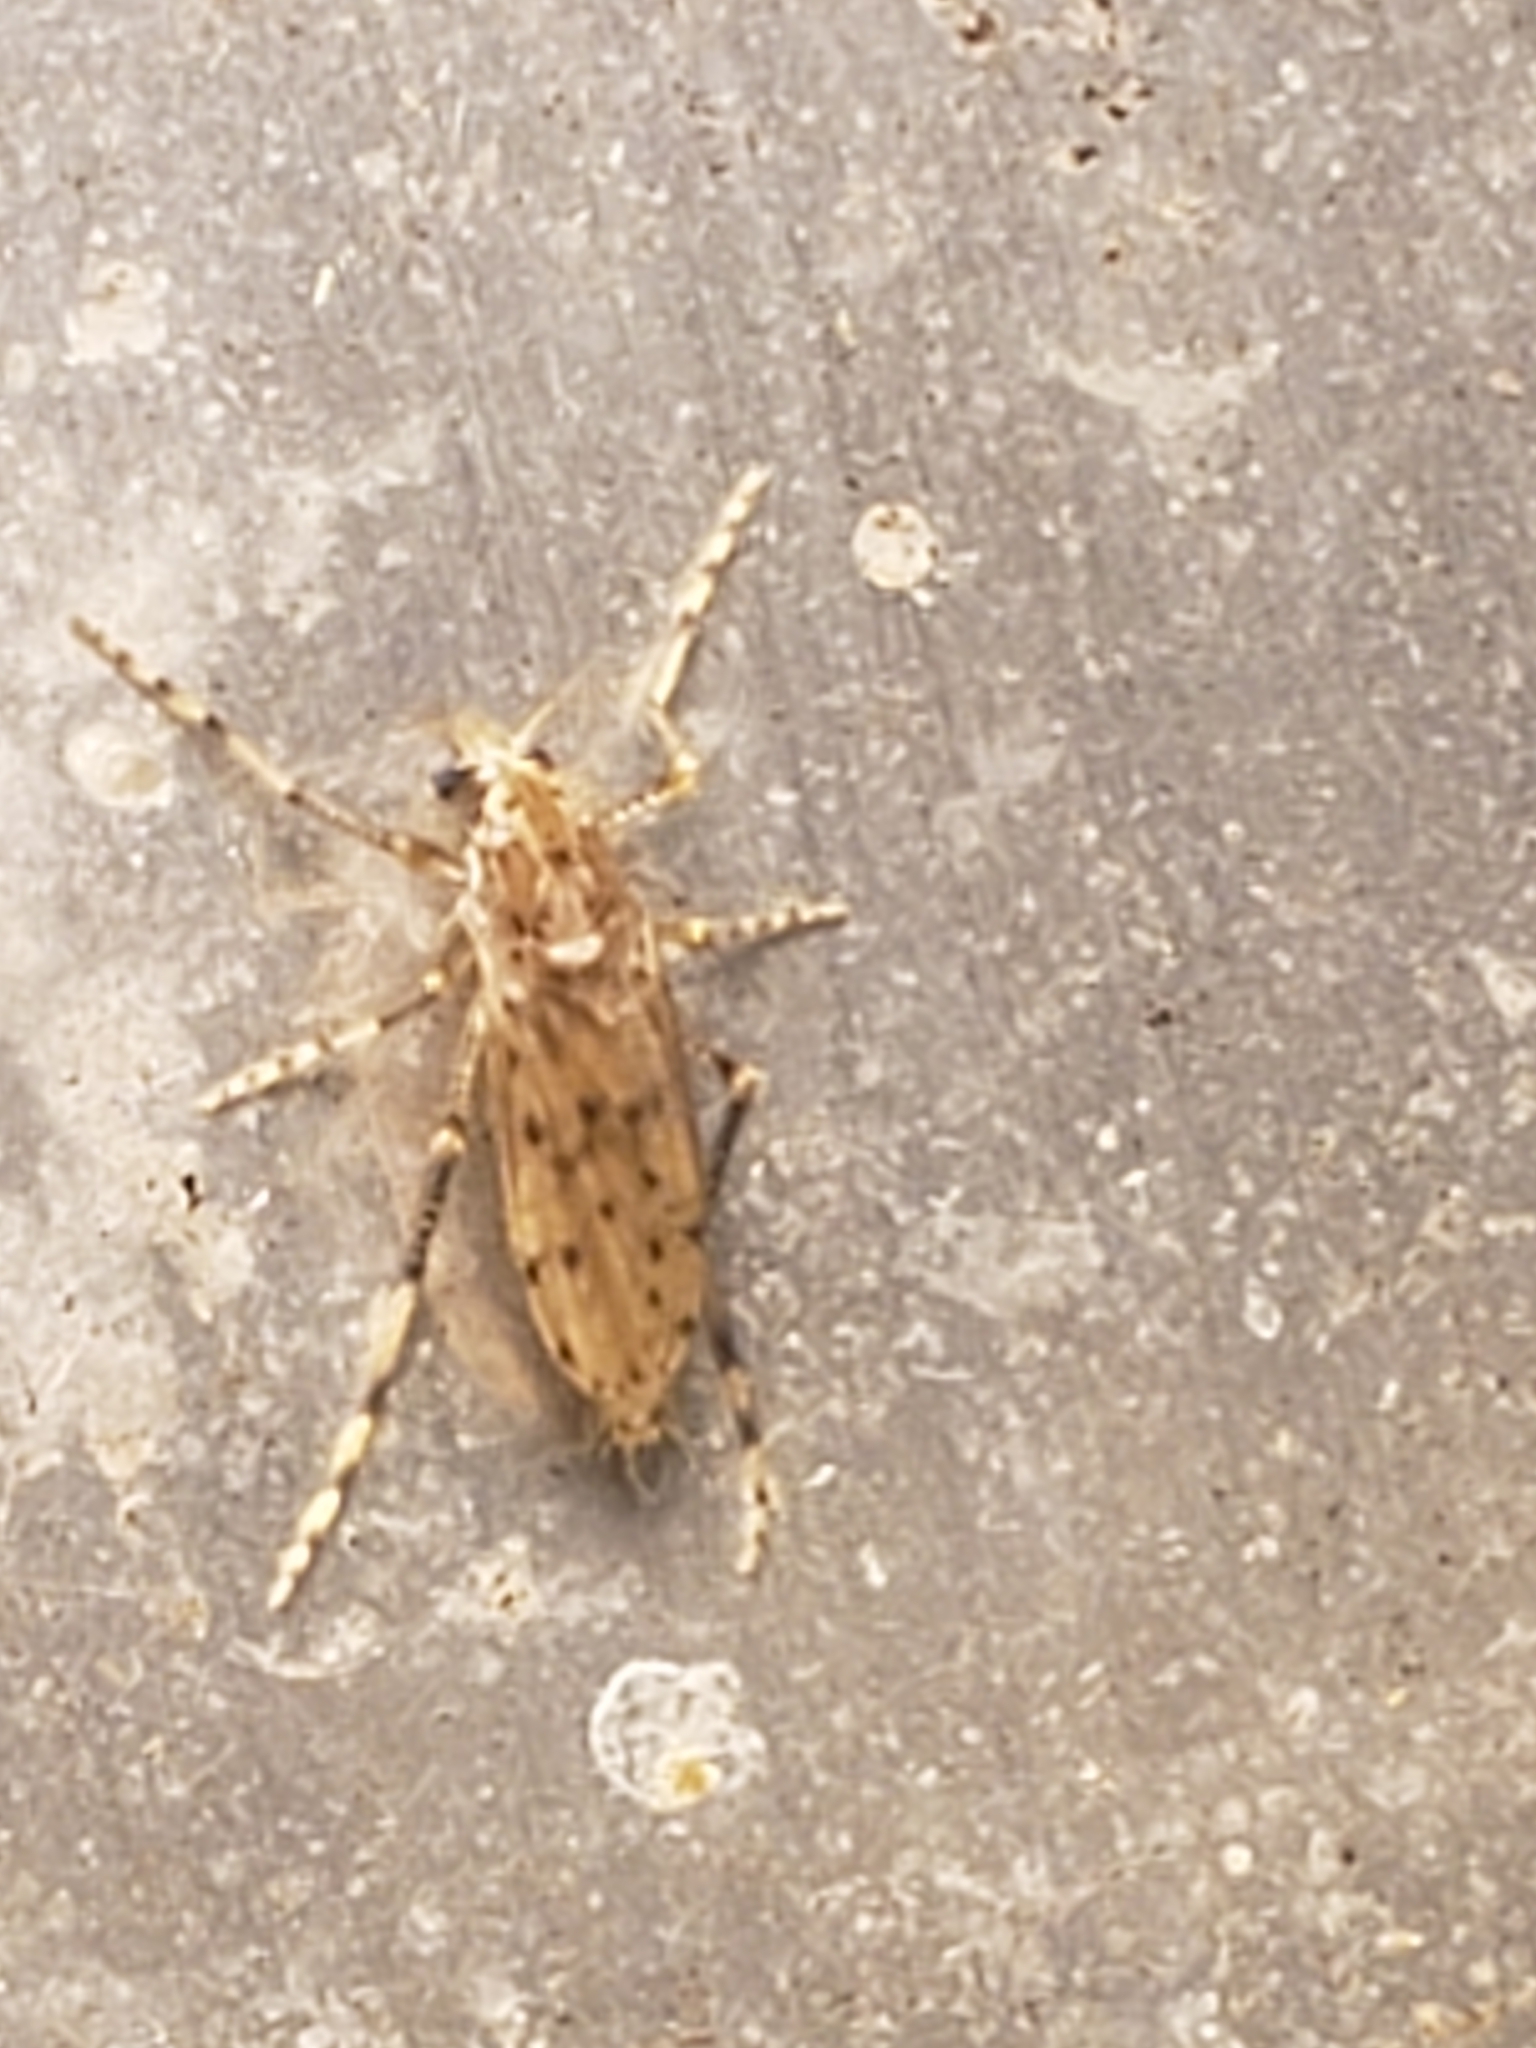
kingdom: Animalia
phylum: Arthropoda
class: Insecta
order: Diptera
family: Chaoboridae
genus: Chaoborus
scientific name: Chaoborus punctipennis
